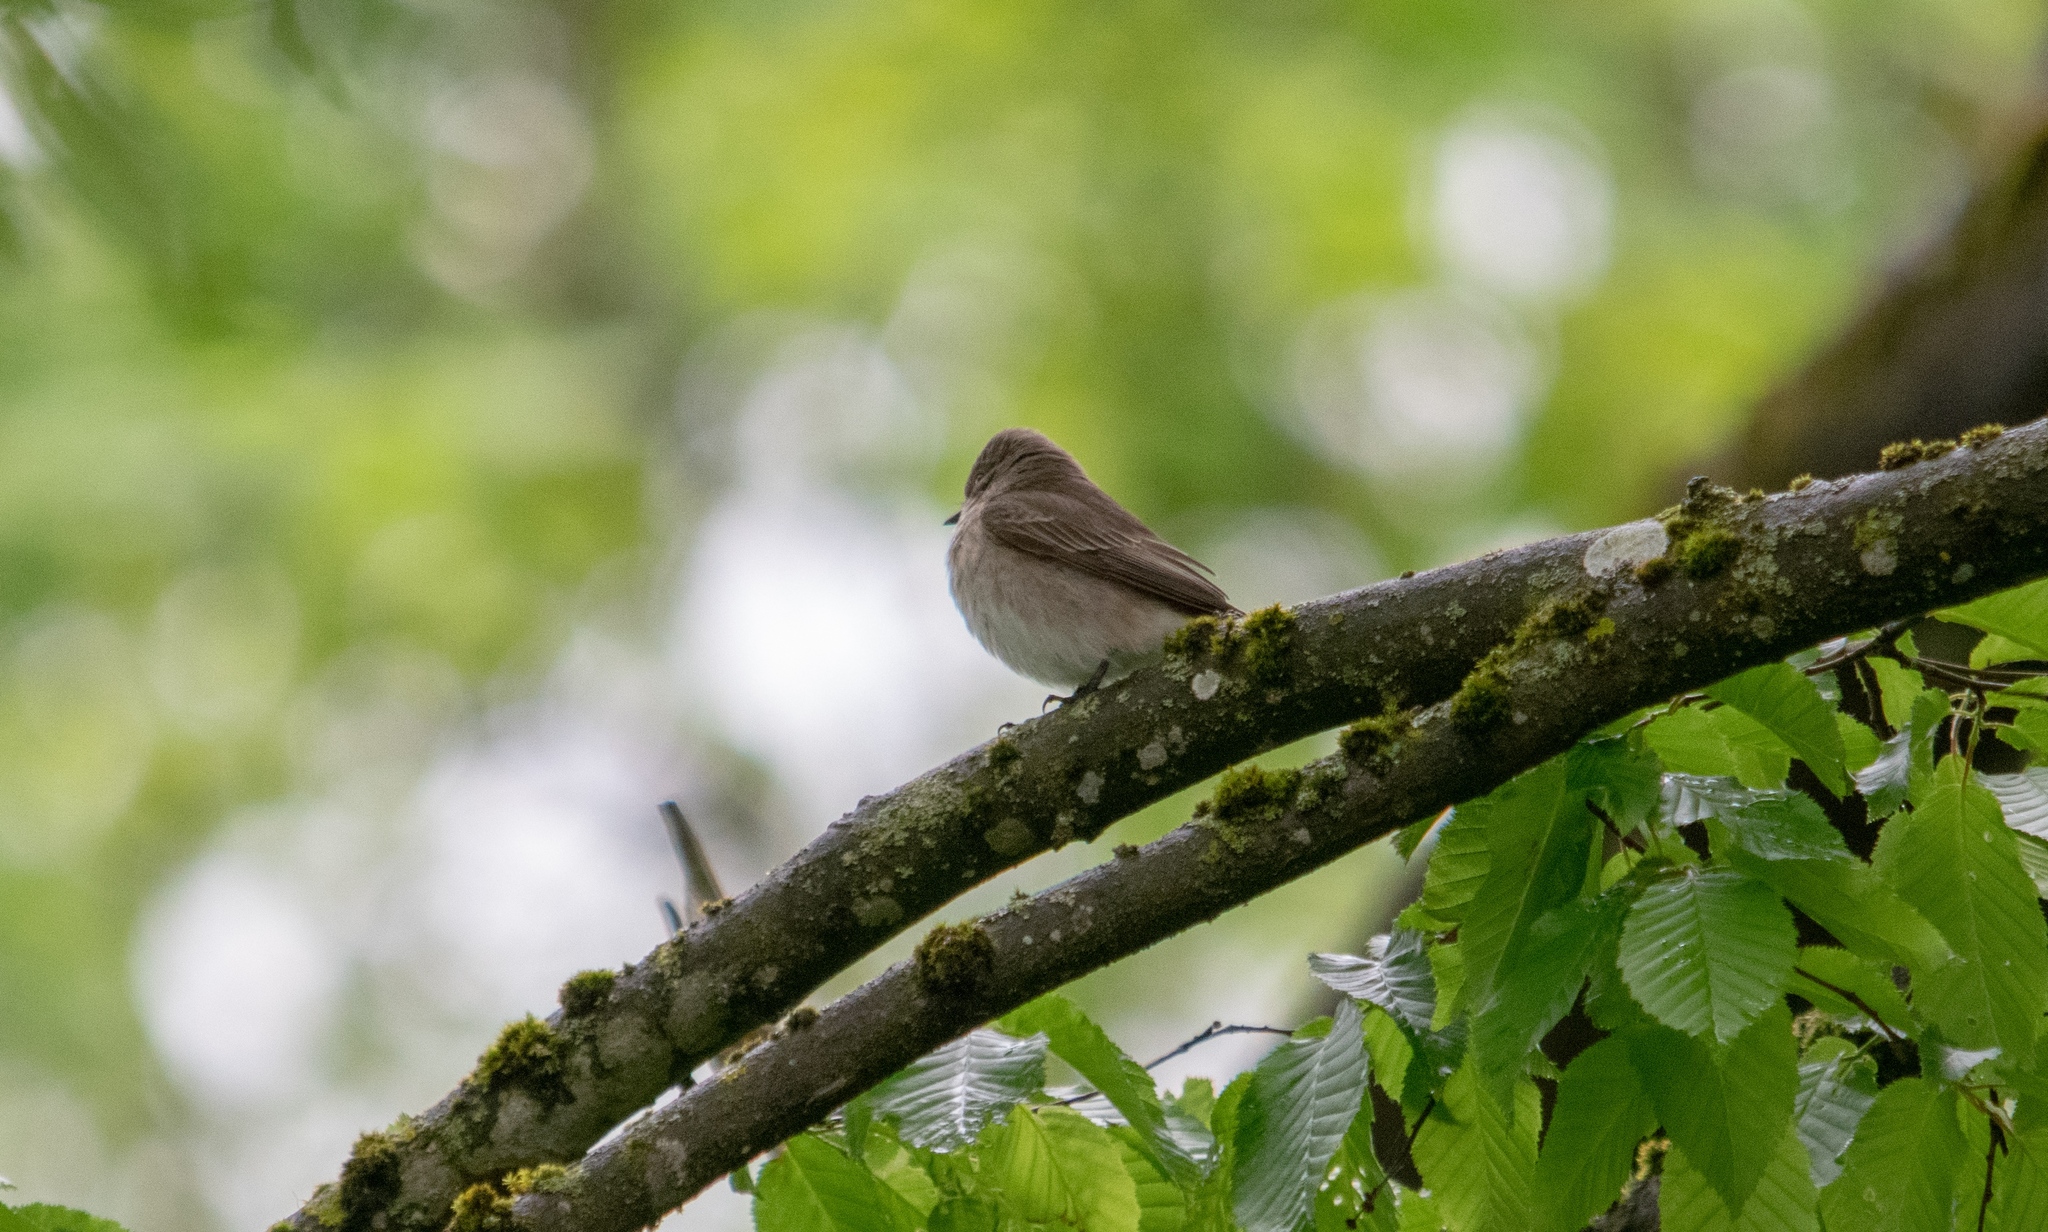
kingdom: Animalia
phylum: Chordata
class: Aves
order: Passeriformes
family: Muscicapidae
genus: Muscicapa
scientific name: Muscicapa striata
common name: Spotted flycatcher
